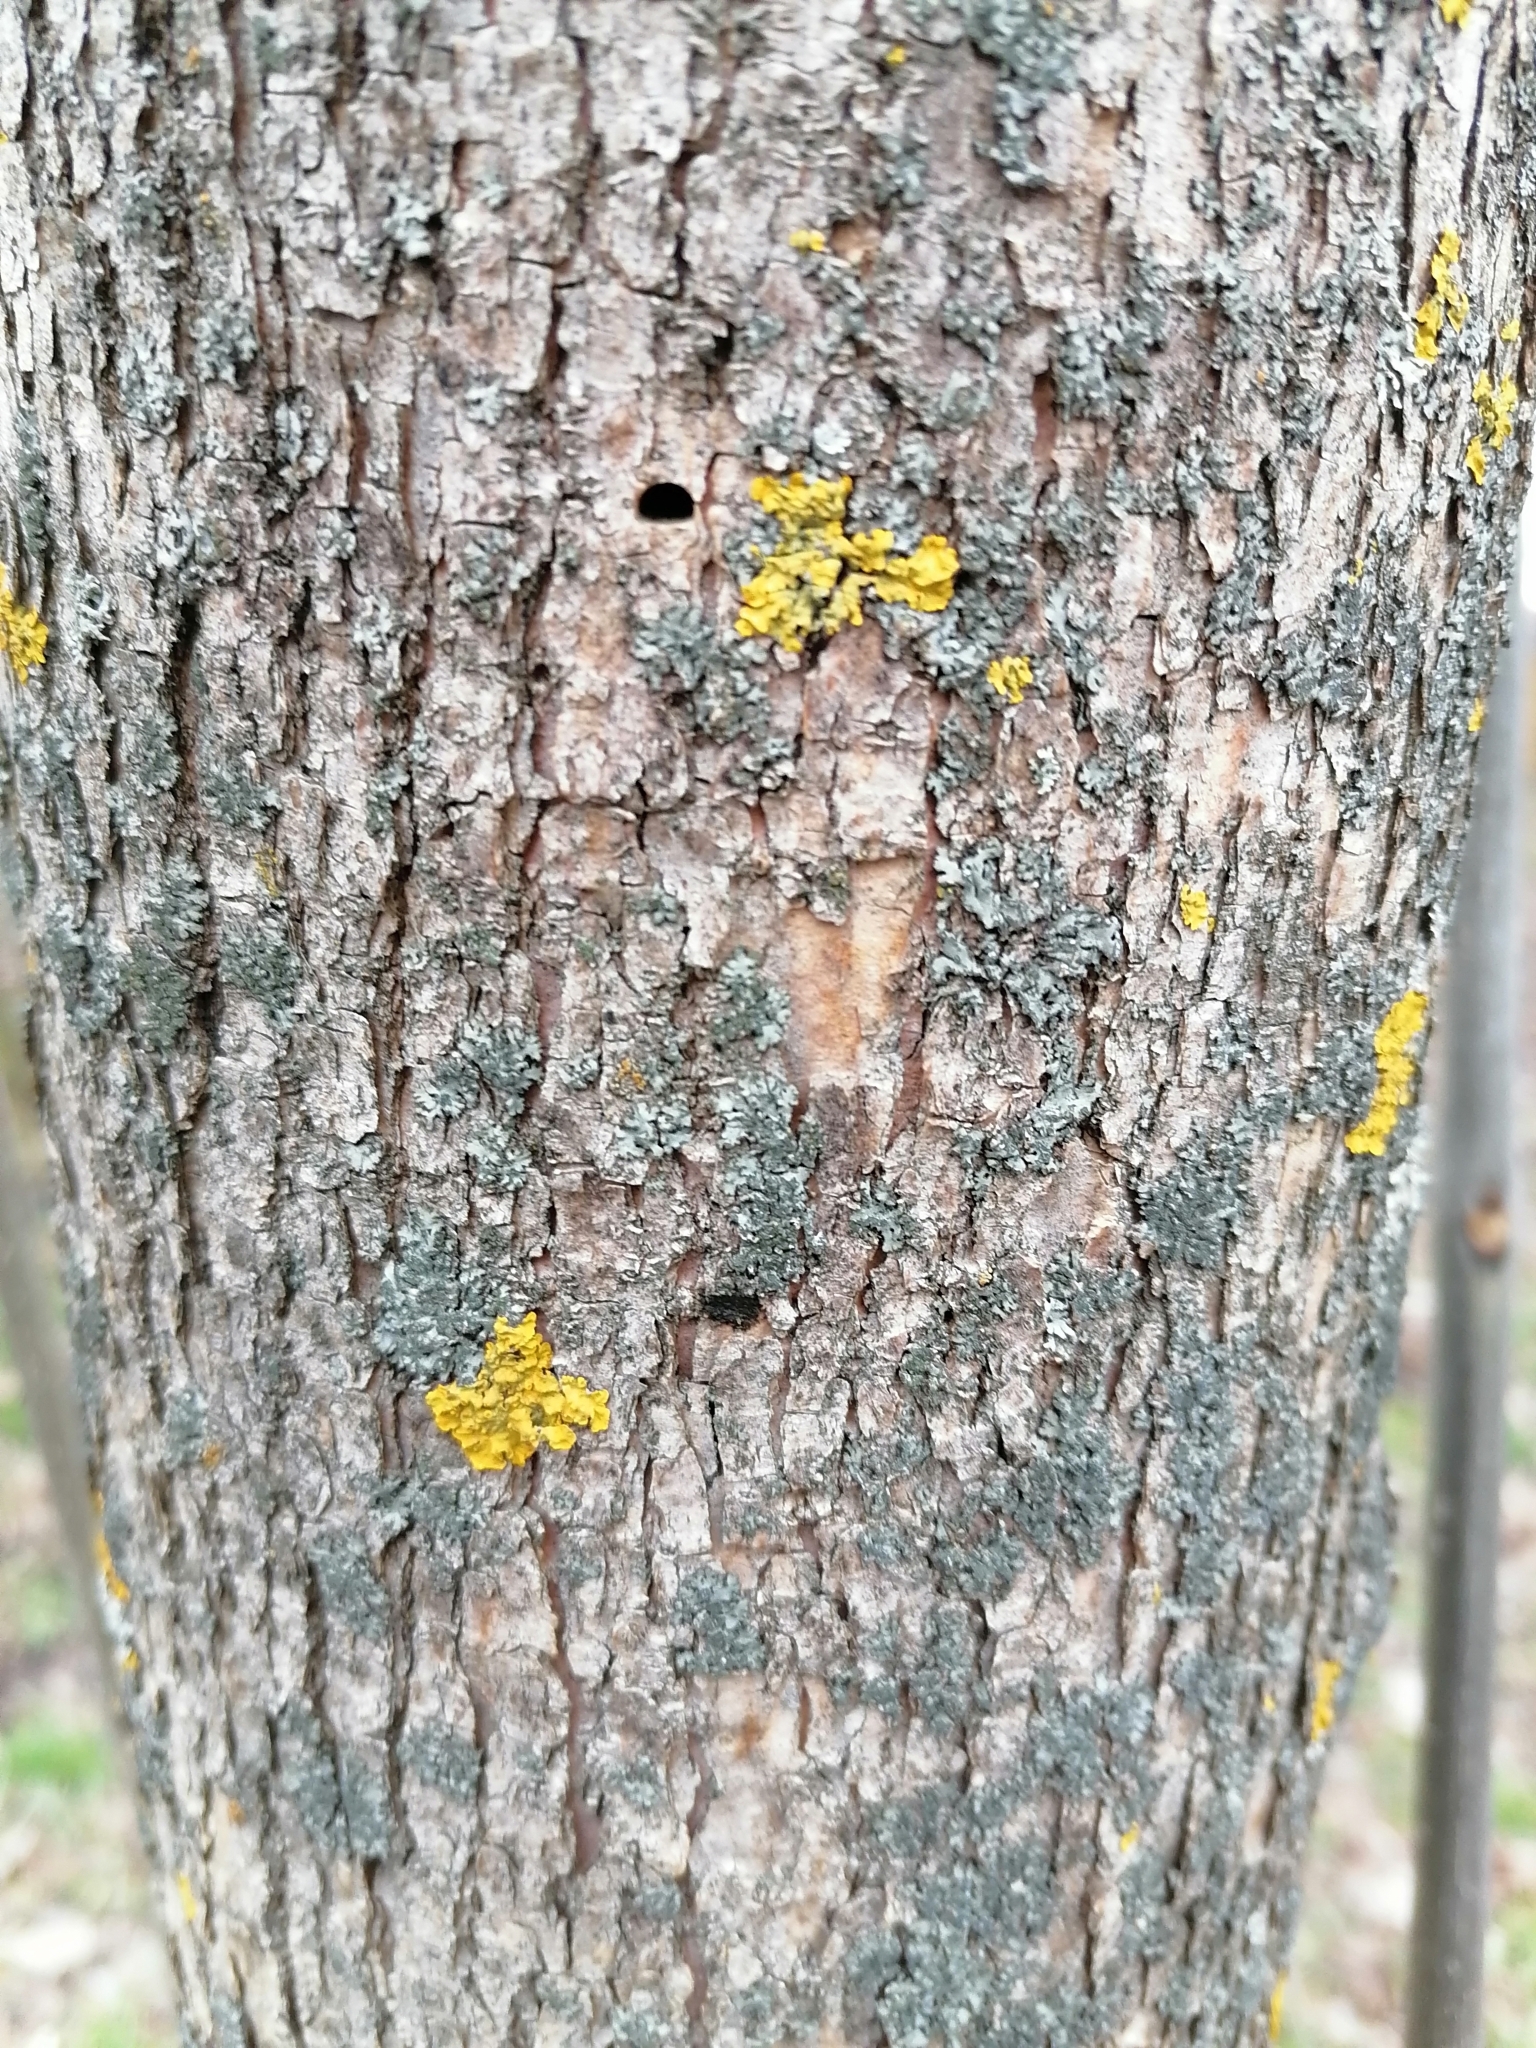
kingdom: Fungi
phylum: Ascomycota
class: Lecanoromycetes
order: Teloschistales
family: Teloschistaceae
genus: Xanthoria
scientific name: Xanthoria parietina
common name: Common orange lichen
